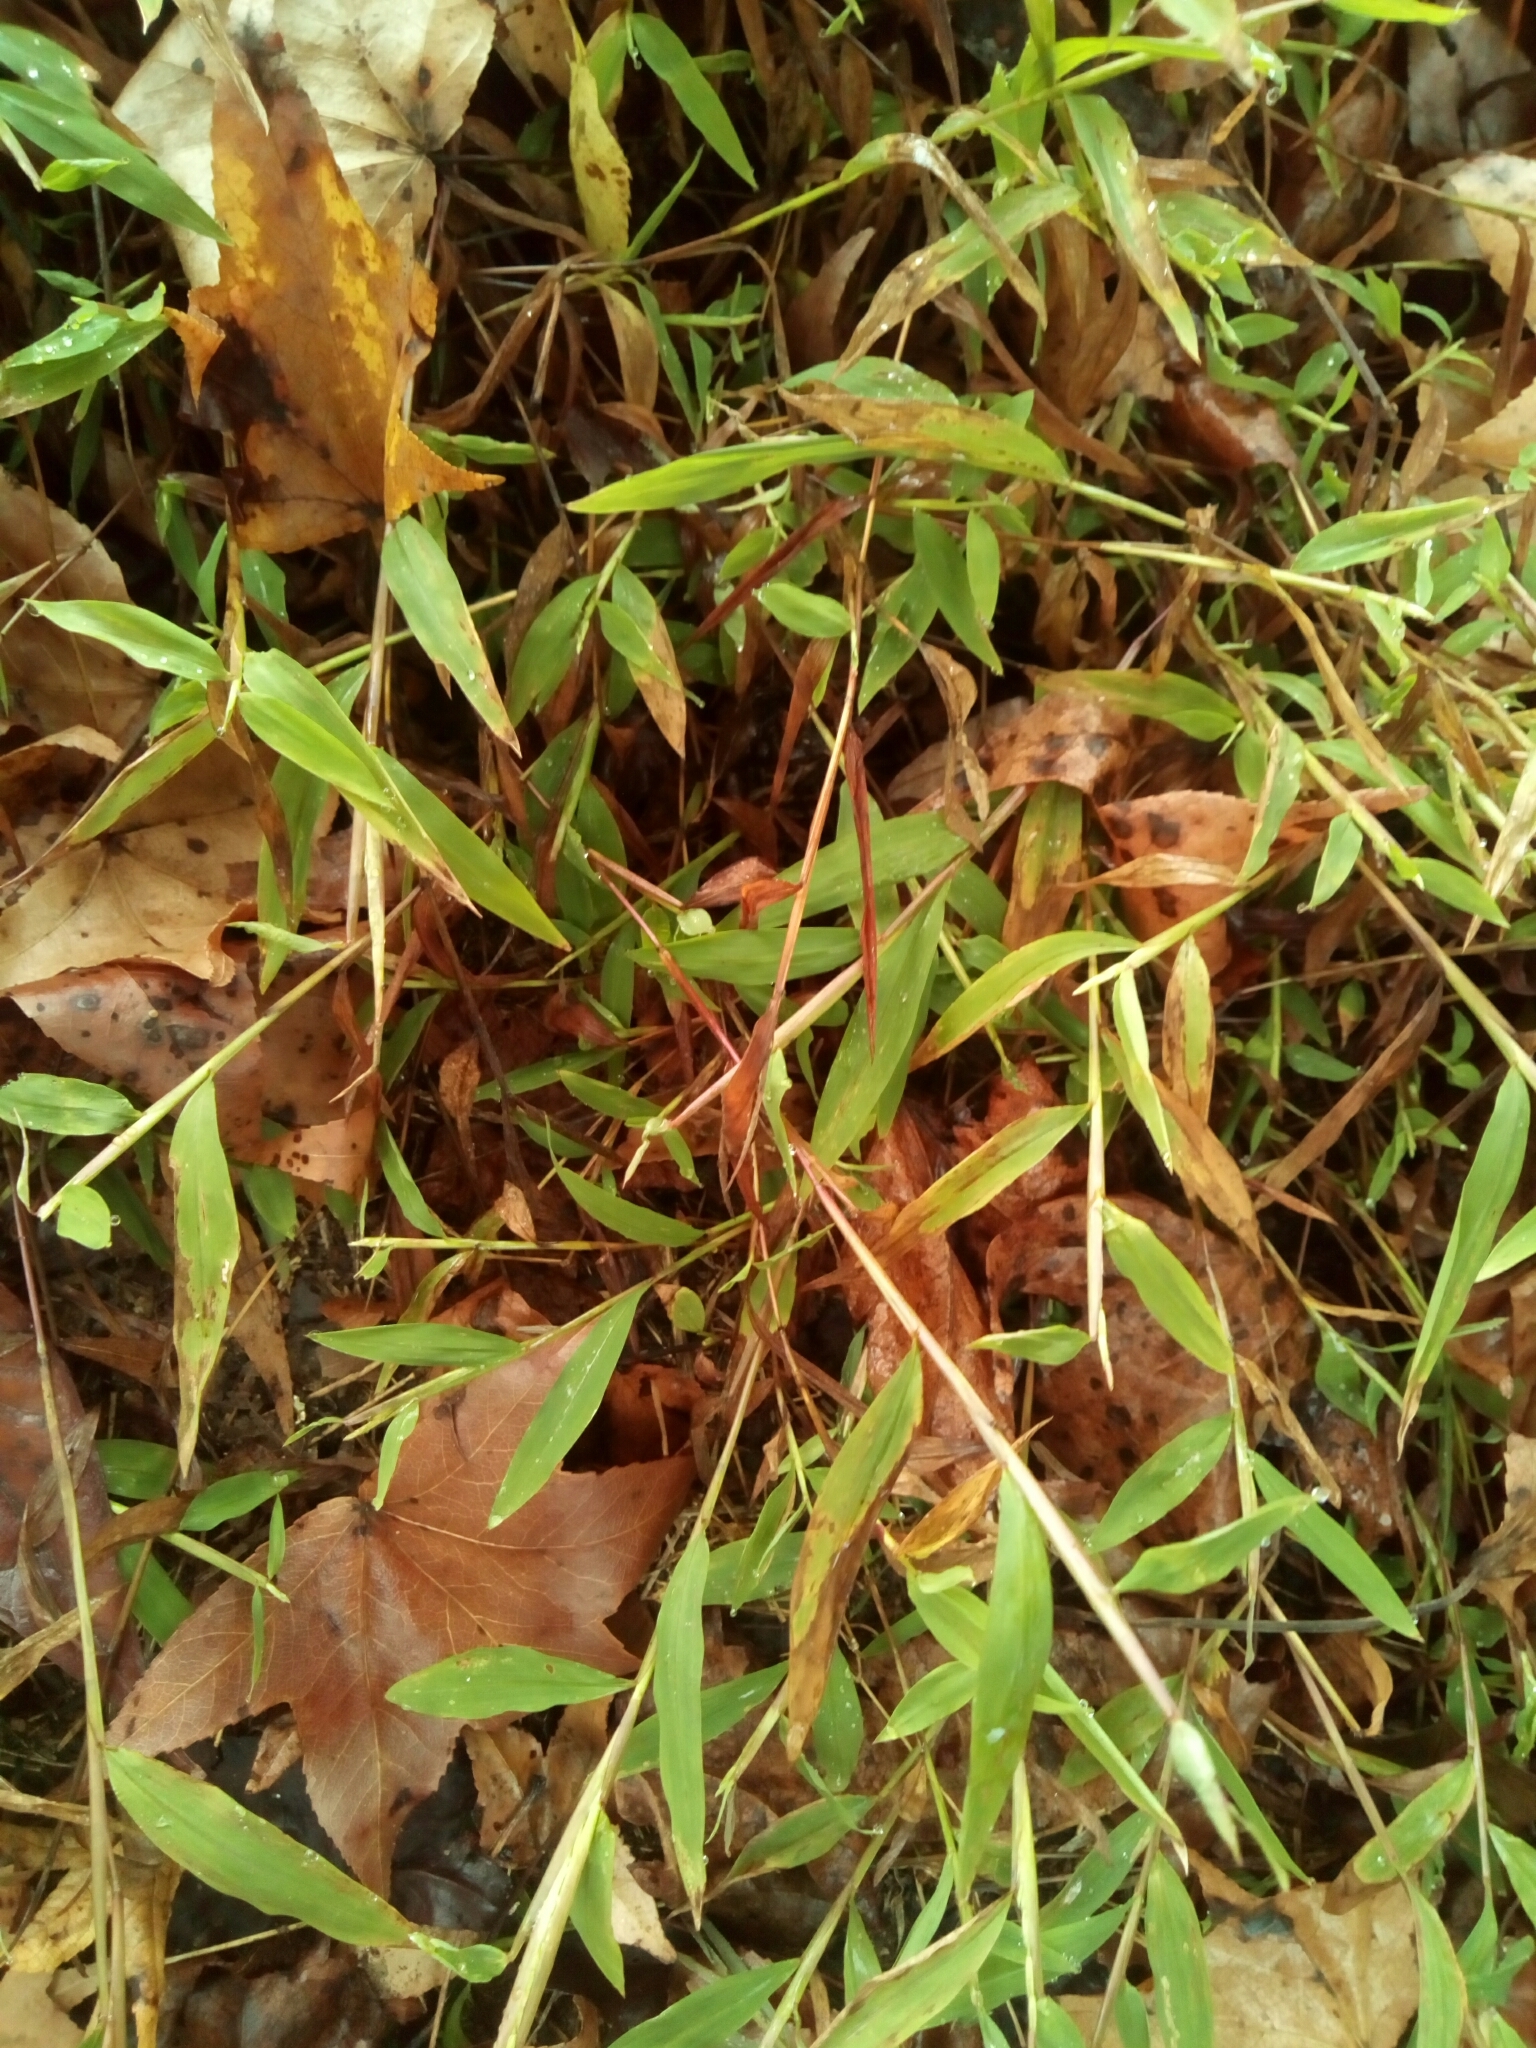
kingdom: Plantae
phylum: Tracheophyta
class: Liliopsida
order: Poales
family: Poaceae
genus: Microstegium
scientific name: Microstegium vimineum
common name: Japanese stiltgrass
